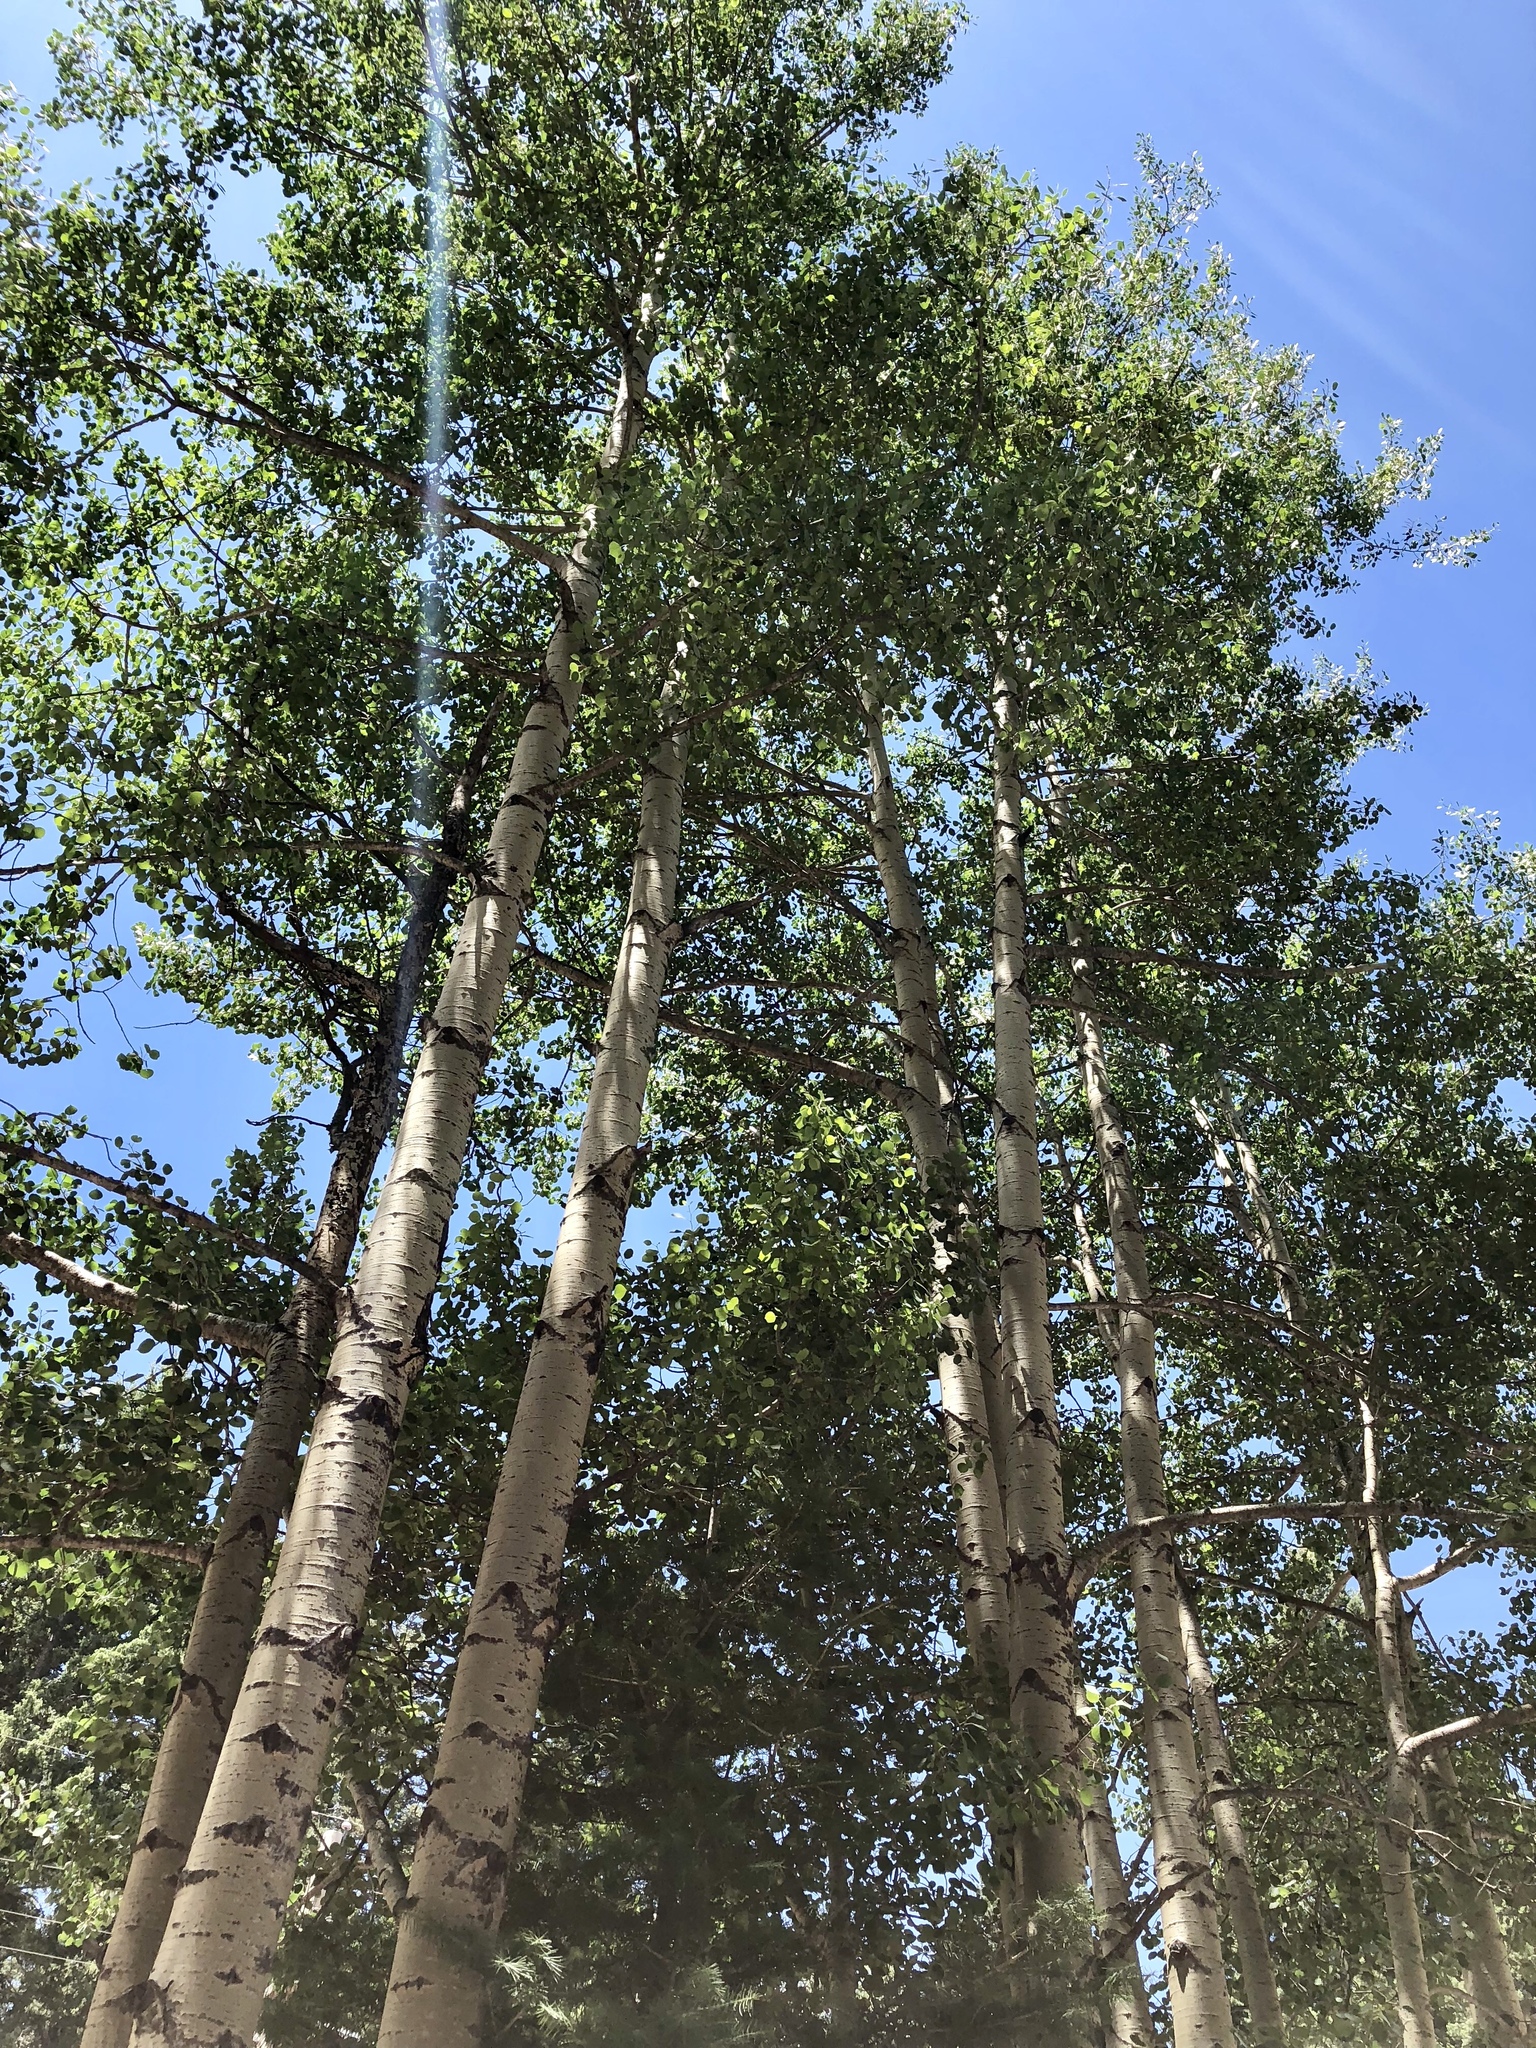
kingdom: Plantae
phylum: Tracheophyta
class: Magnoliopsida
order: Malpighiales
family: Salicaceae
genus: Populus
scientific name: Populus tremuloides
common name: Quaking aspen
